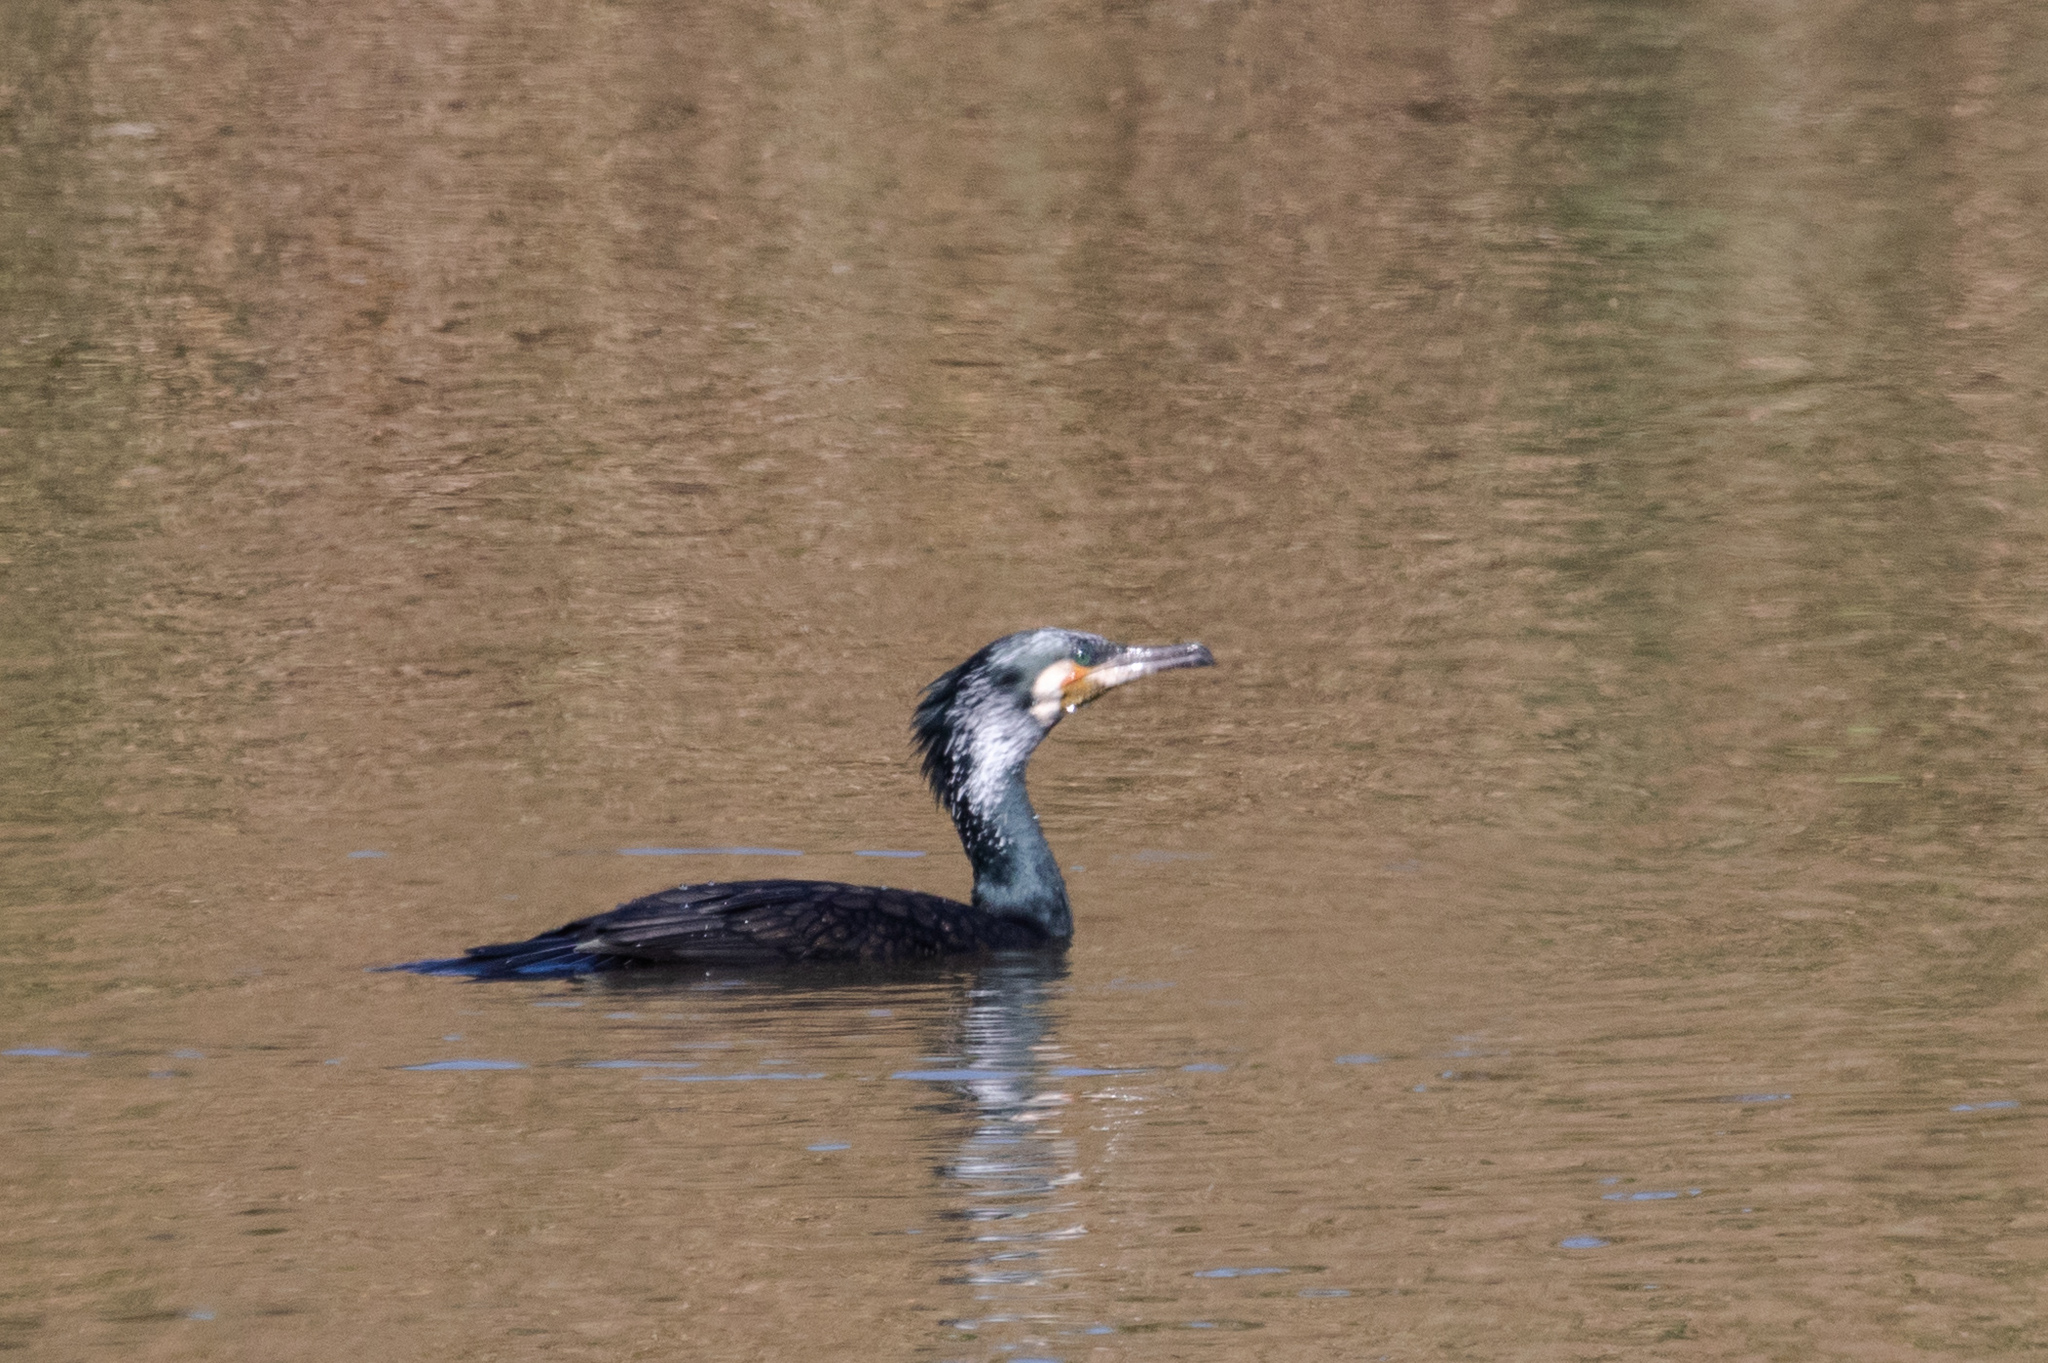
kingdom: Animalia
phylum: Chordata
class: Aves
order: Suliformes
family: Phalacrocoracidae
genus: Phalacrocorax
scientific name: Phalacrocorax carbo
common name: Great cormorant
